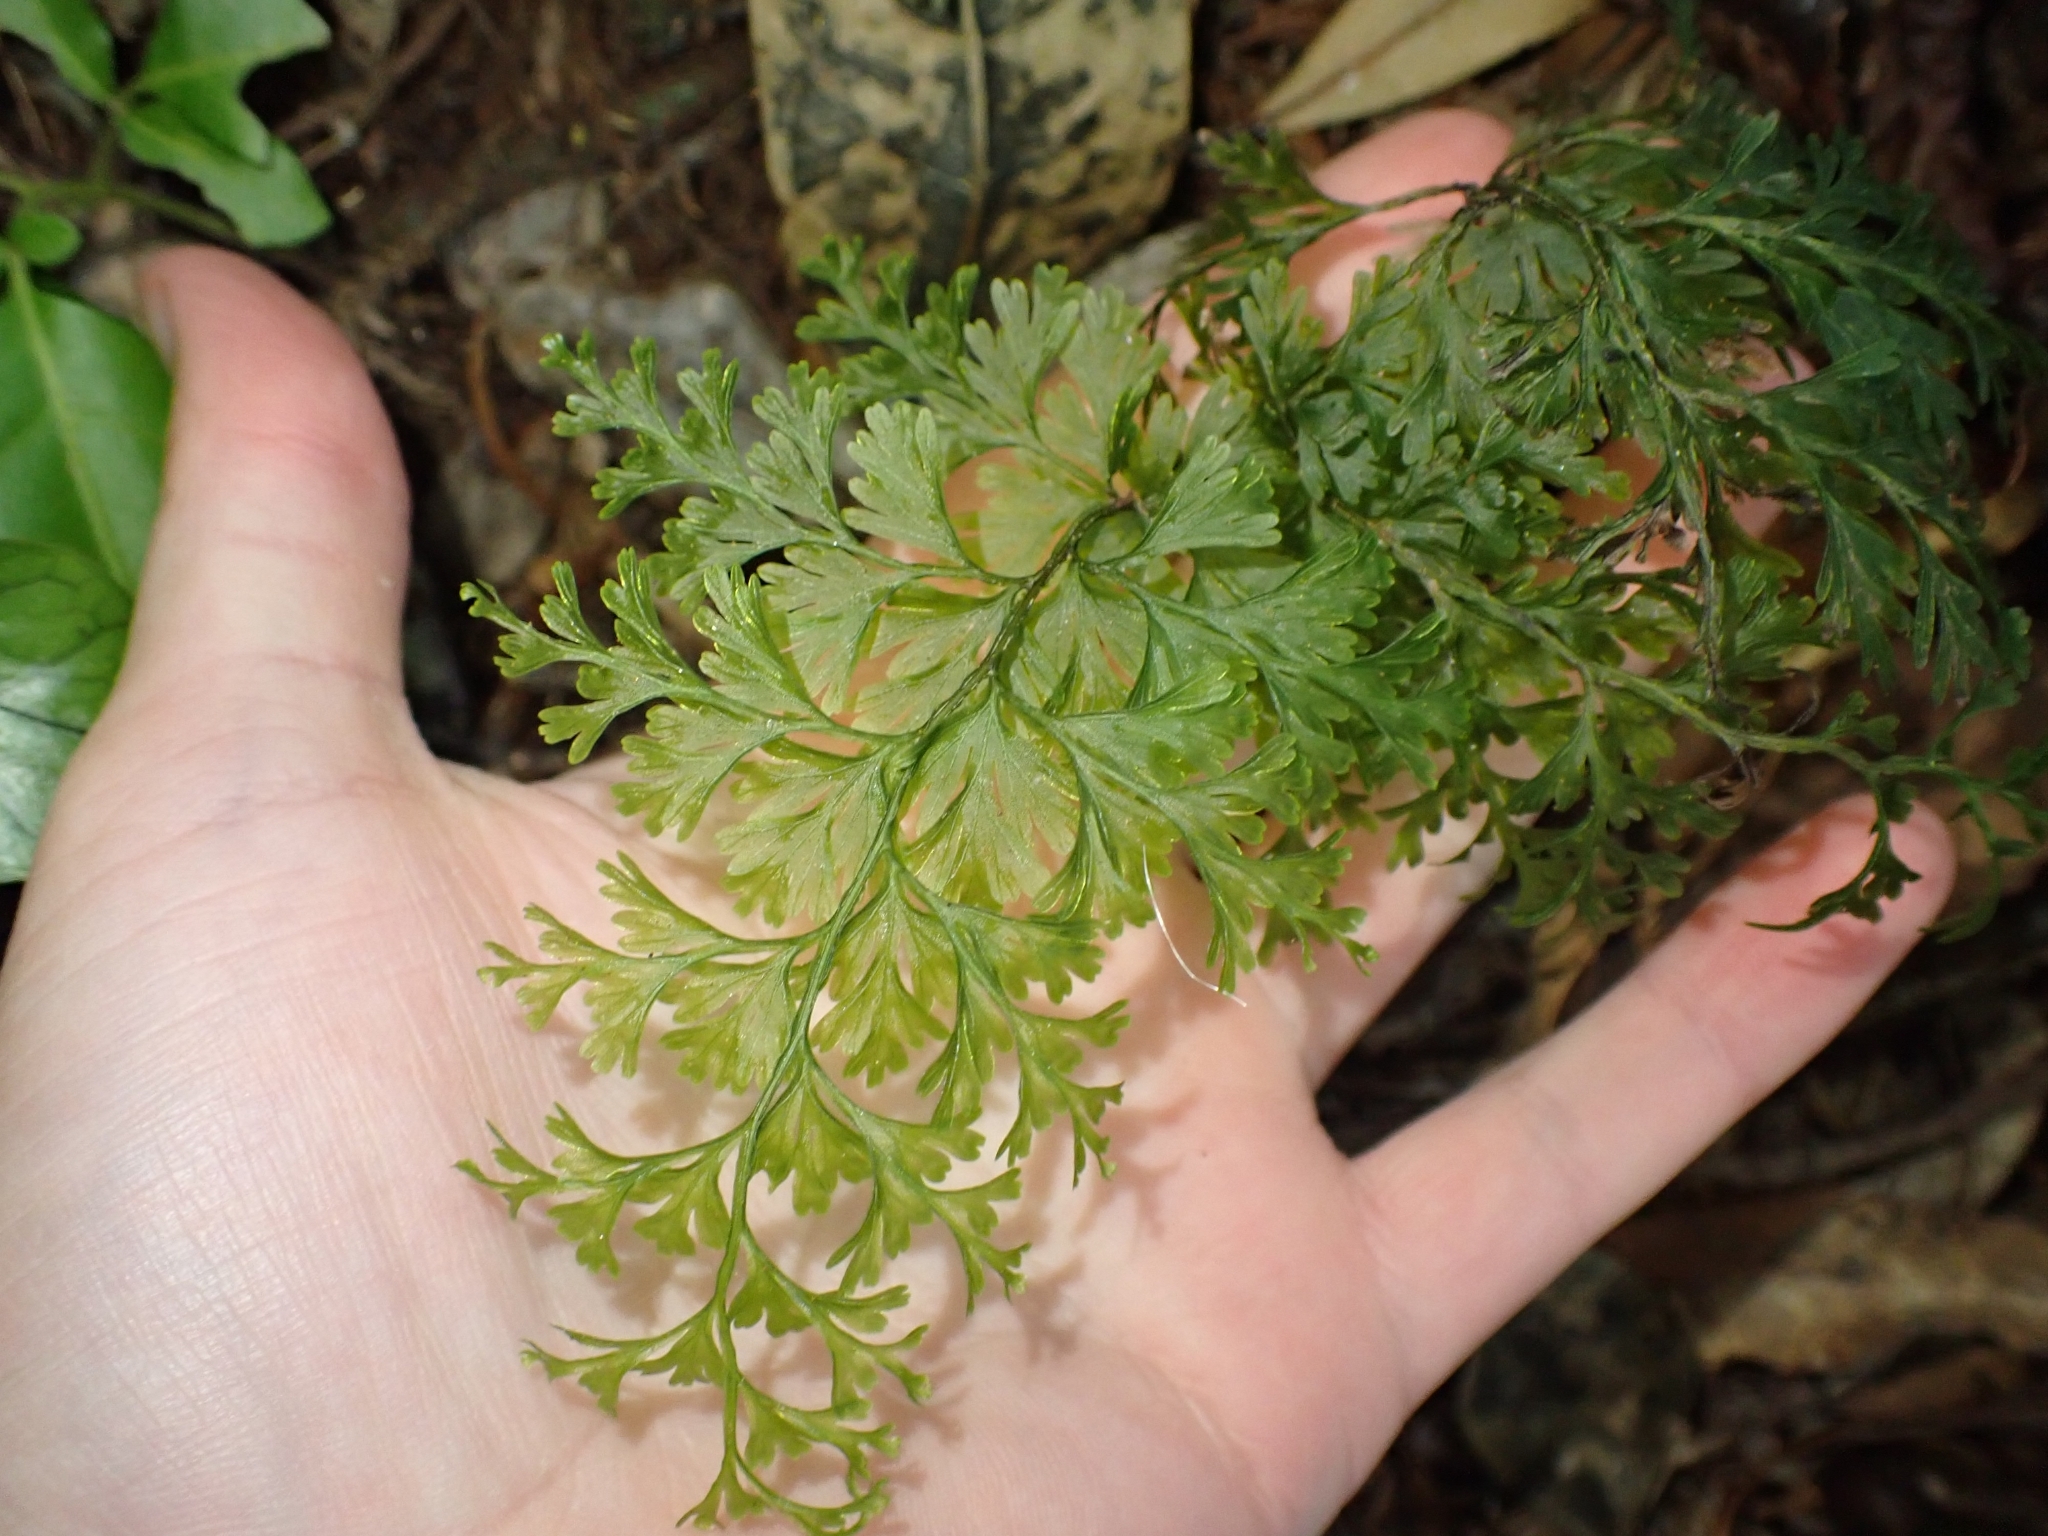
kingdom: Plantae
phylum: Tracheophyta
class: Polypodiopsida
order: Hymenophyllales
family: Hymenophyllaceae
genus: Hymenophyllum
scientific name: Hymenophyllum demissum
